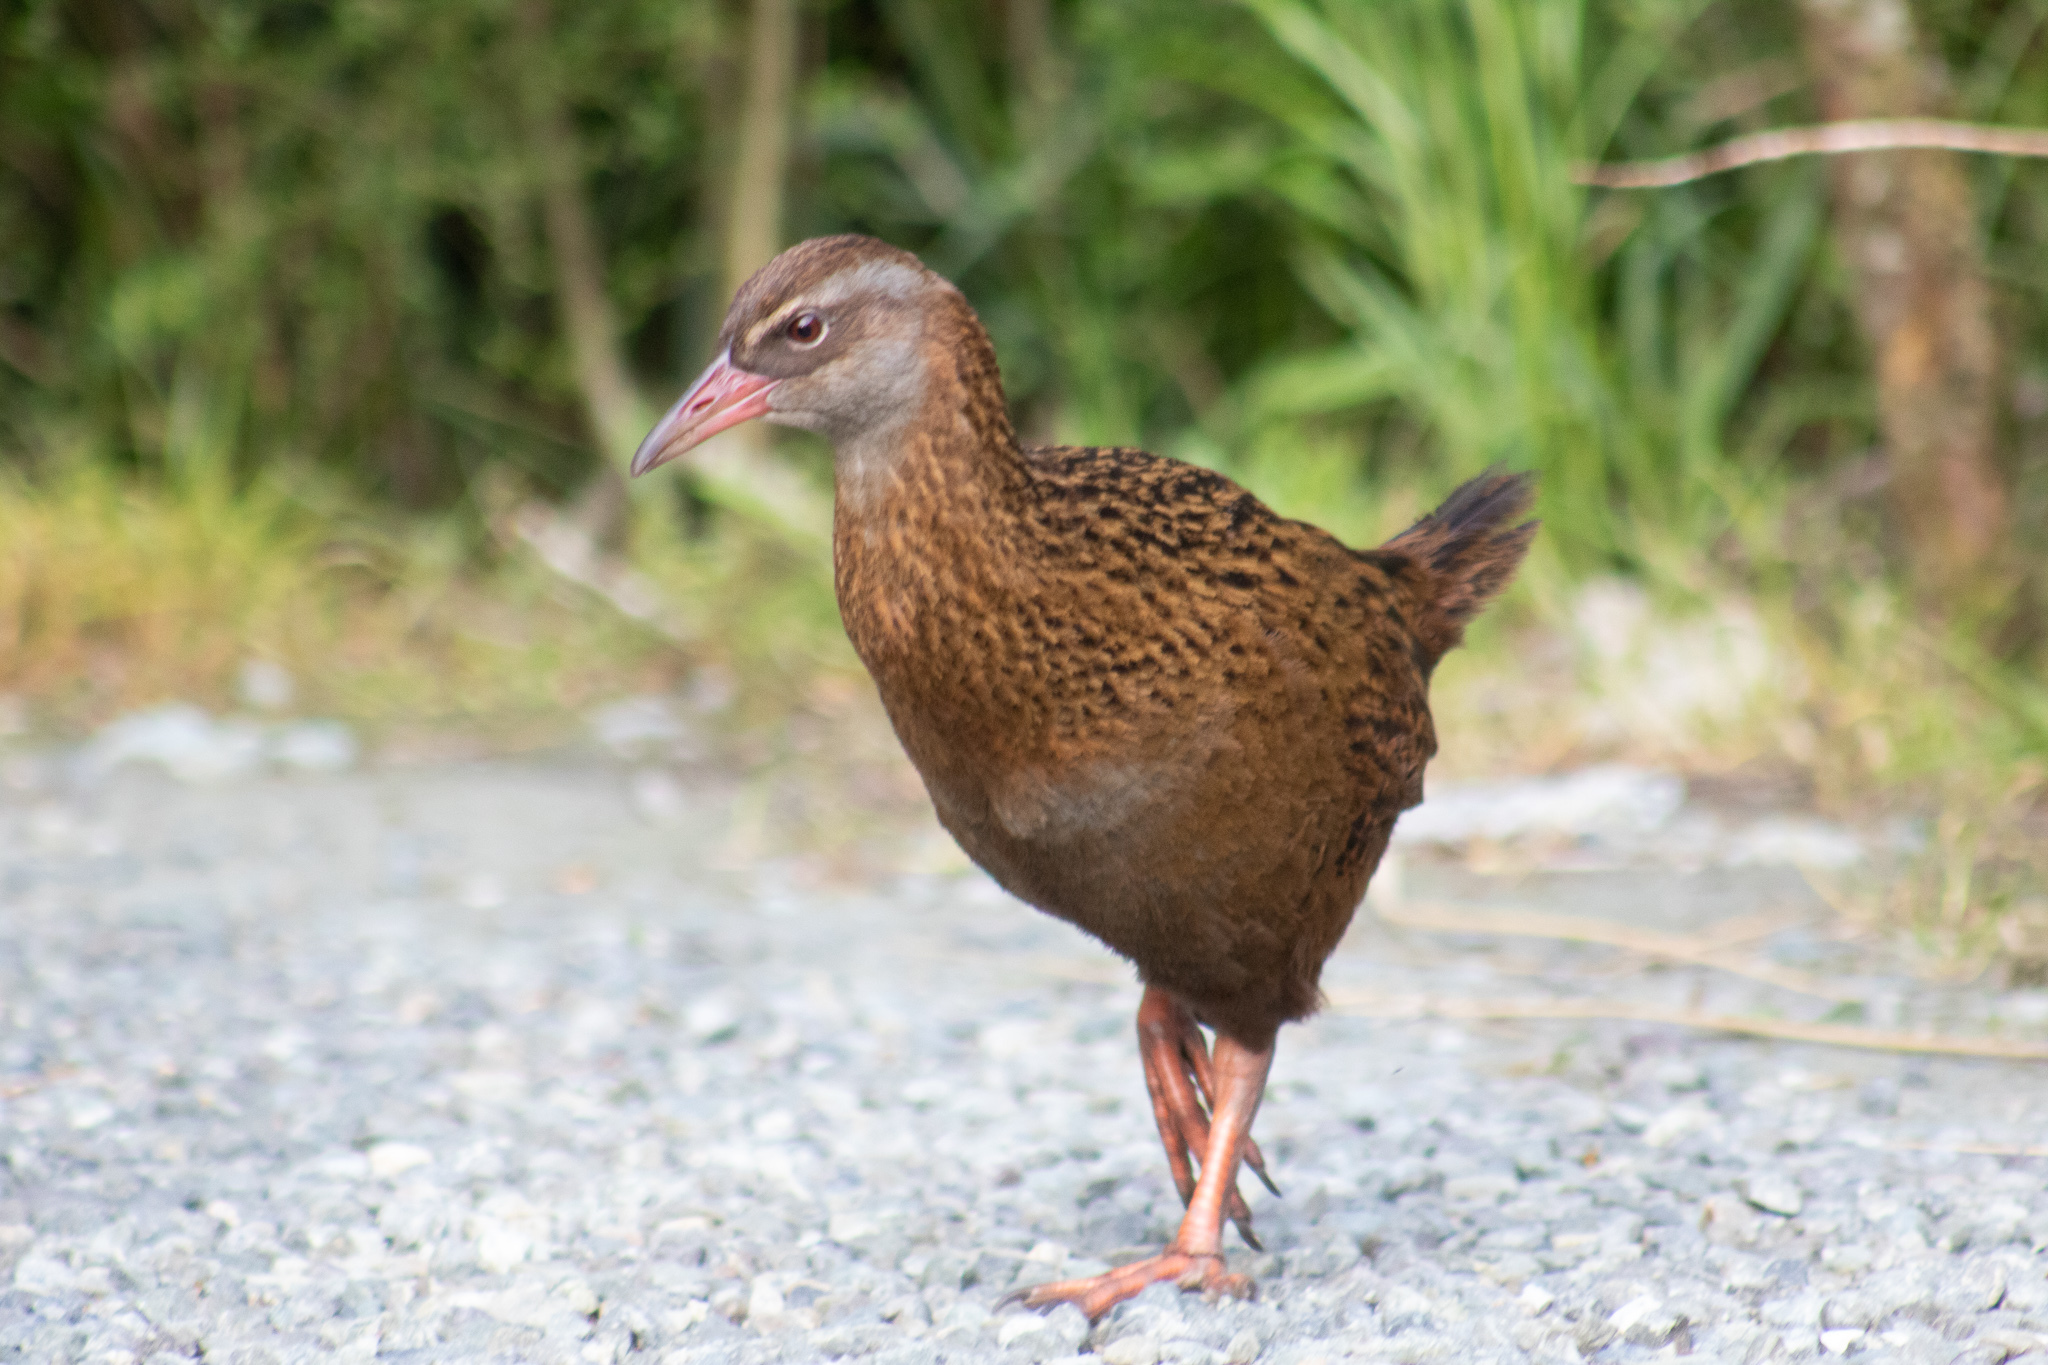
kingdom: Animalia
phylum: Chordata
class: Aves
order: Gruiformes
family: Rallidae
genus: Gallirallus
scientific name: Gallirallus australis
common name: Weka
